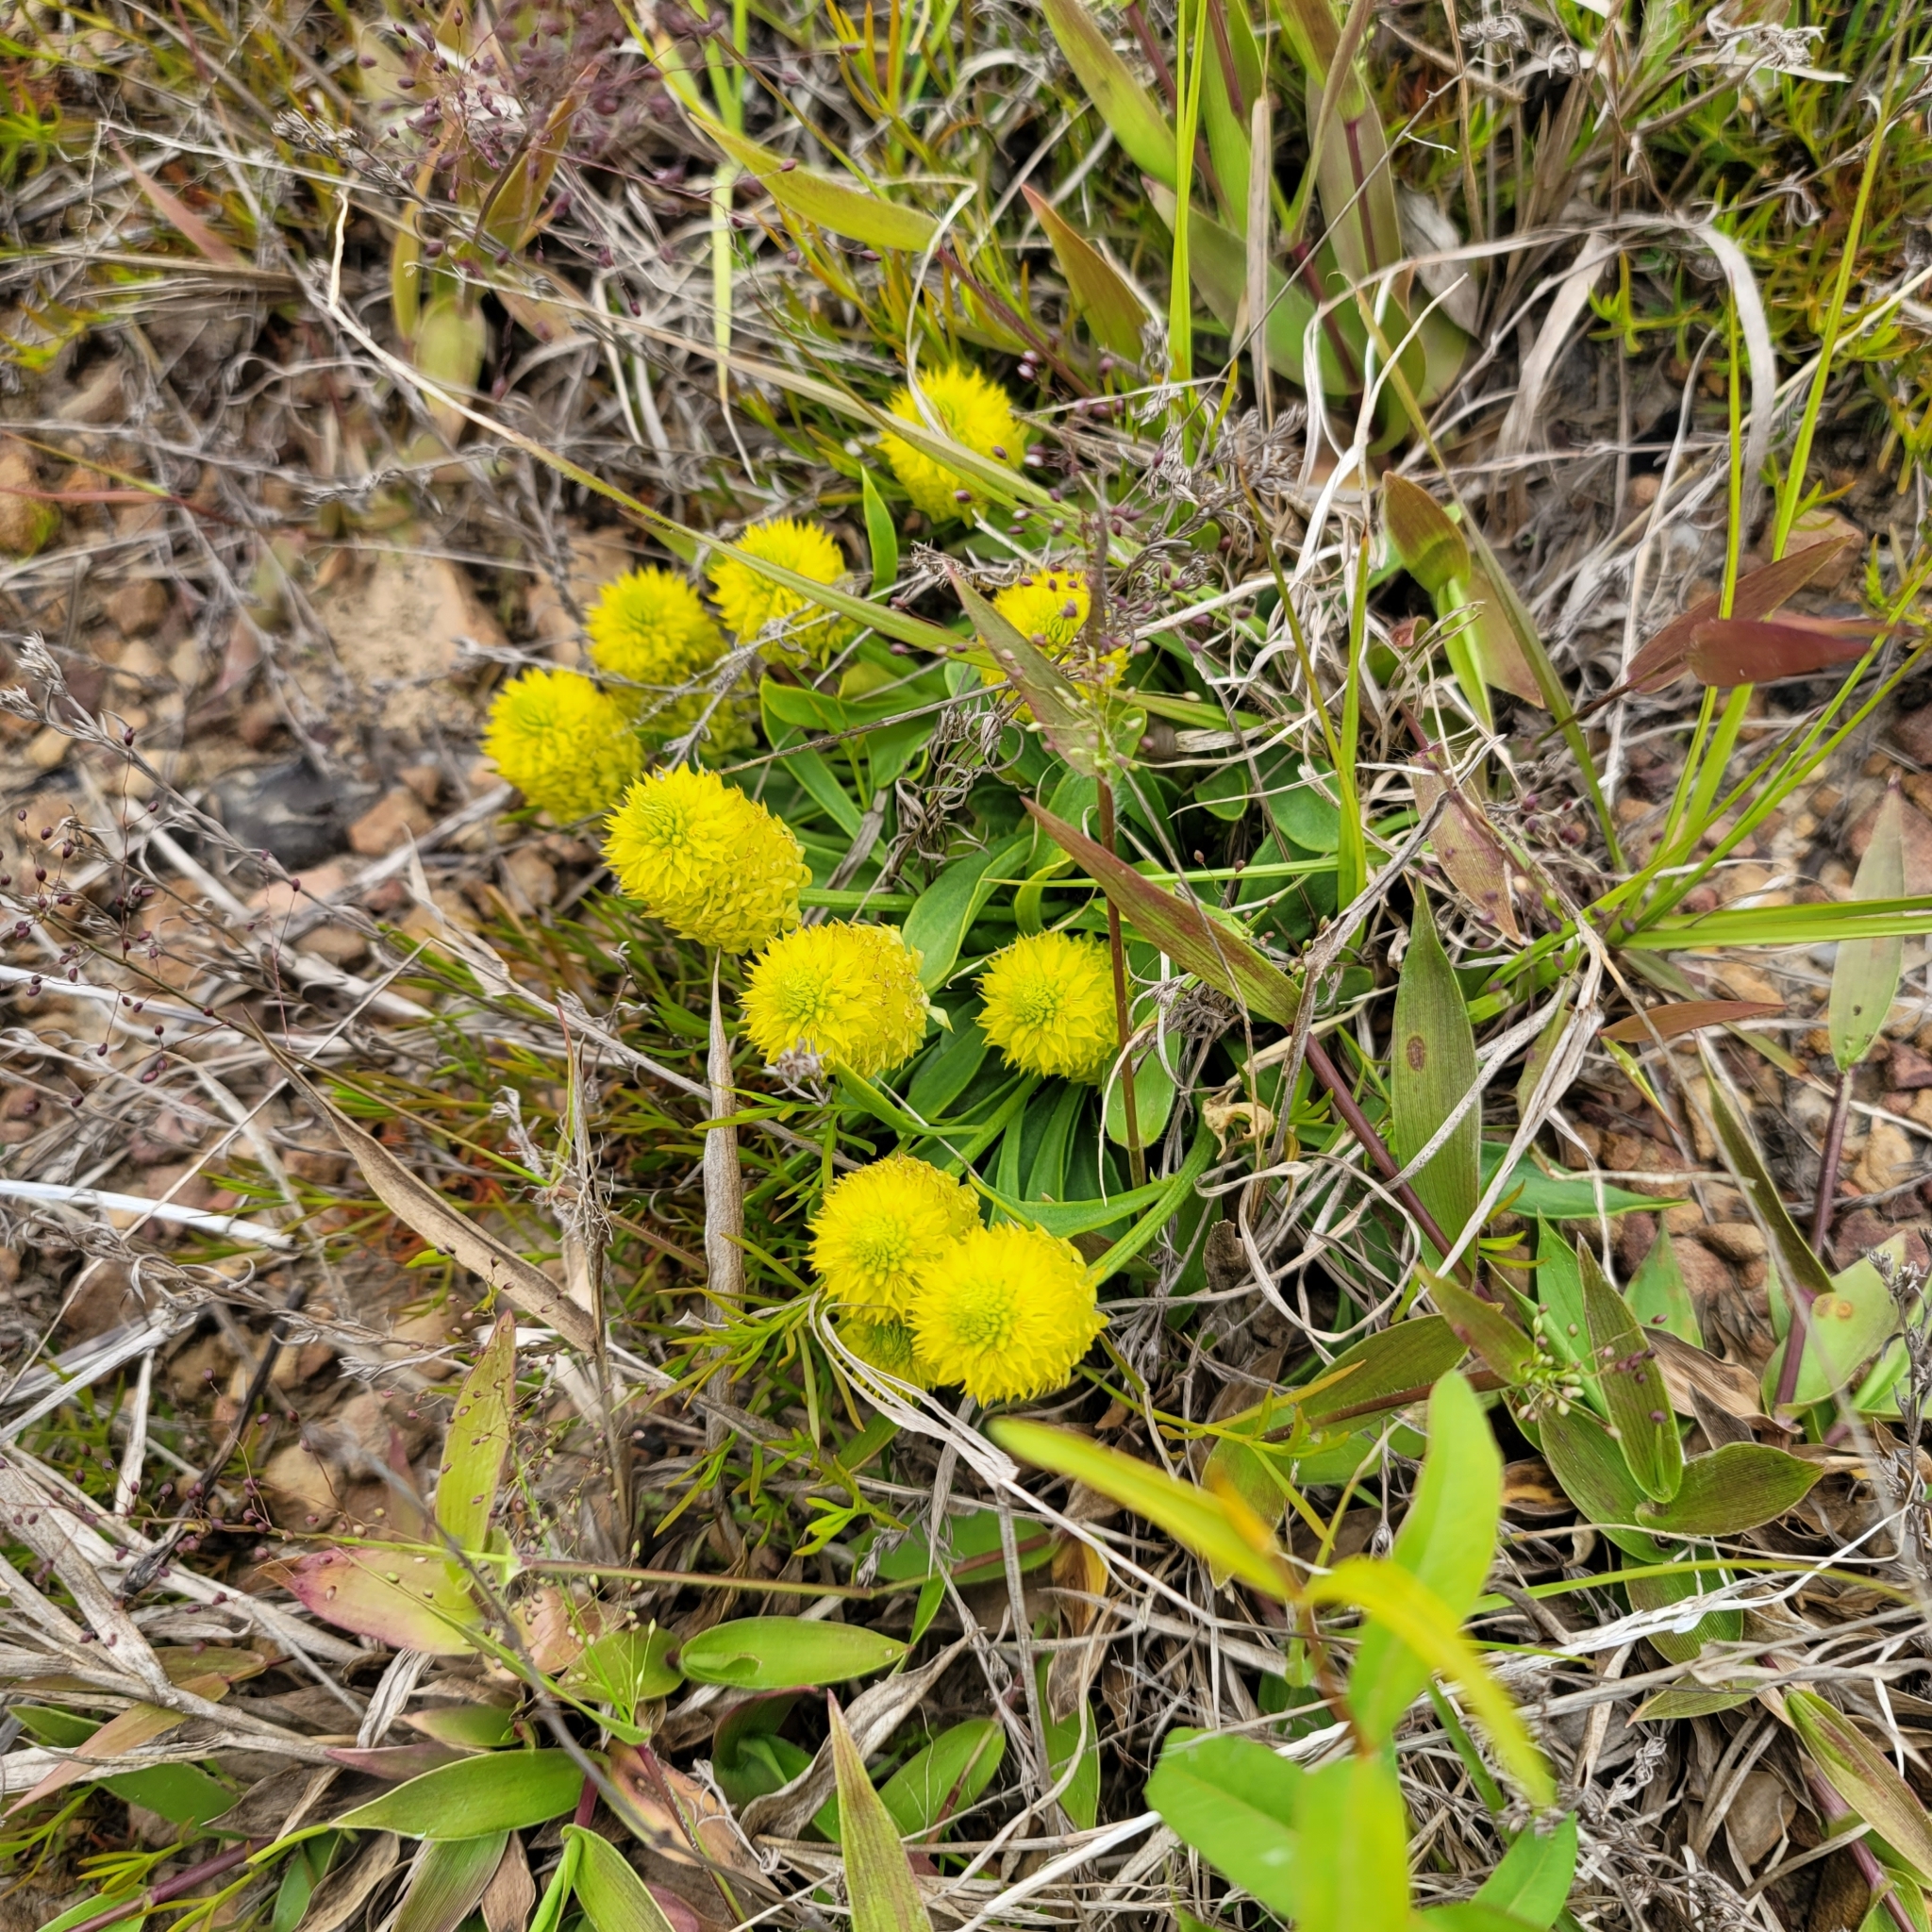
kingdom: Plantae
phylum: Tracheophyta
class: Magnoliopsida
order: Fabales
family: Polygalaceae
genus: Polygala
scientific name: Polygala nana
